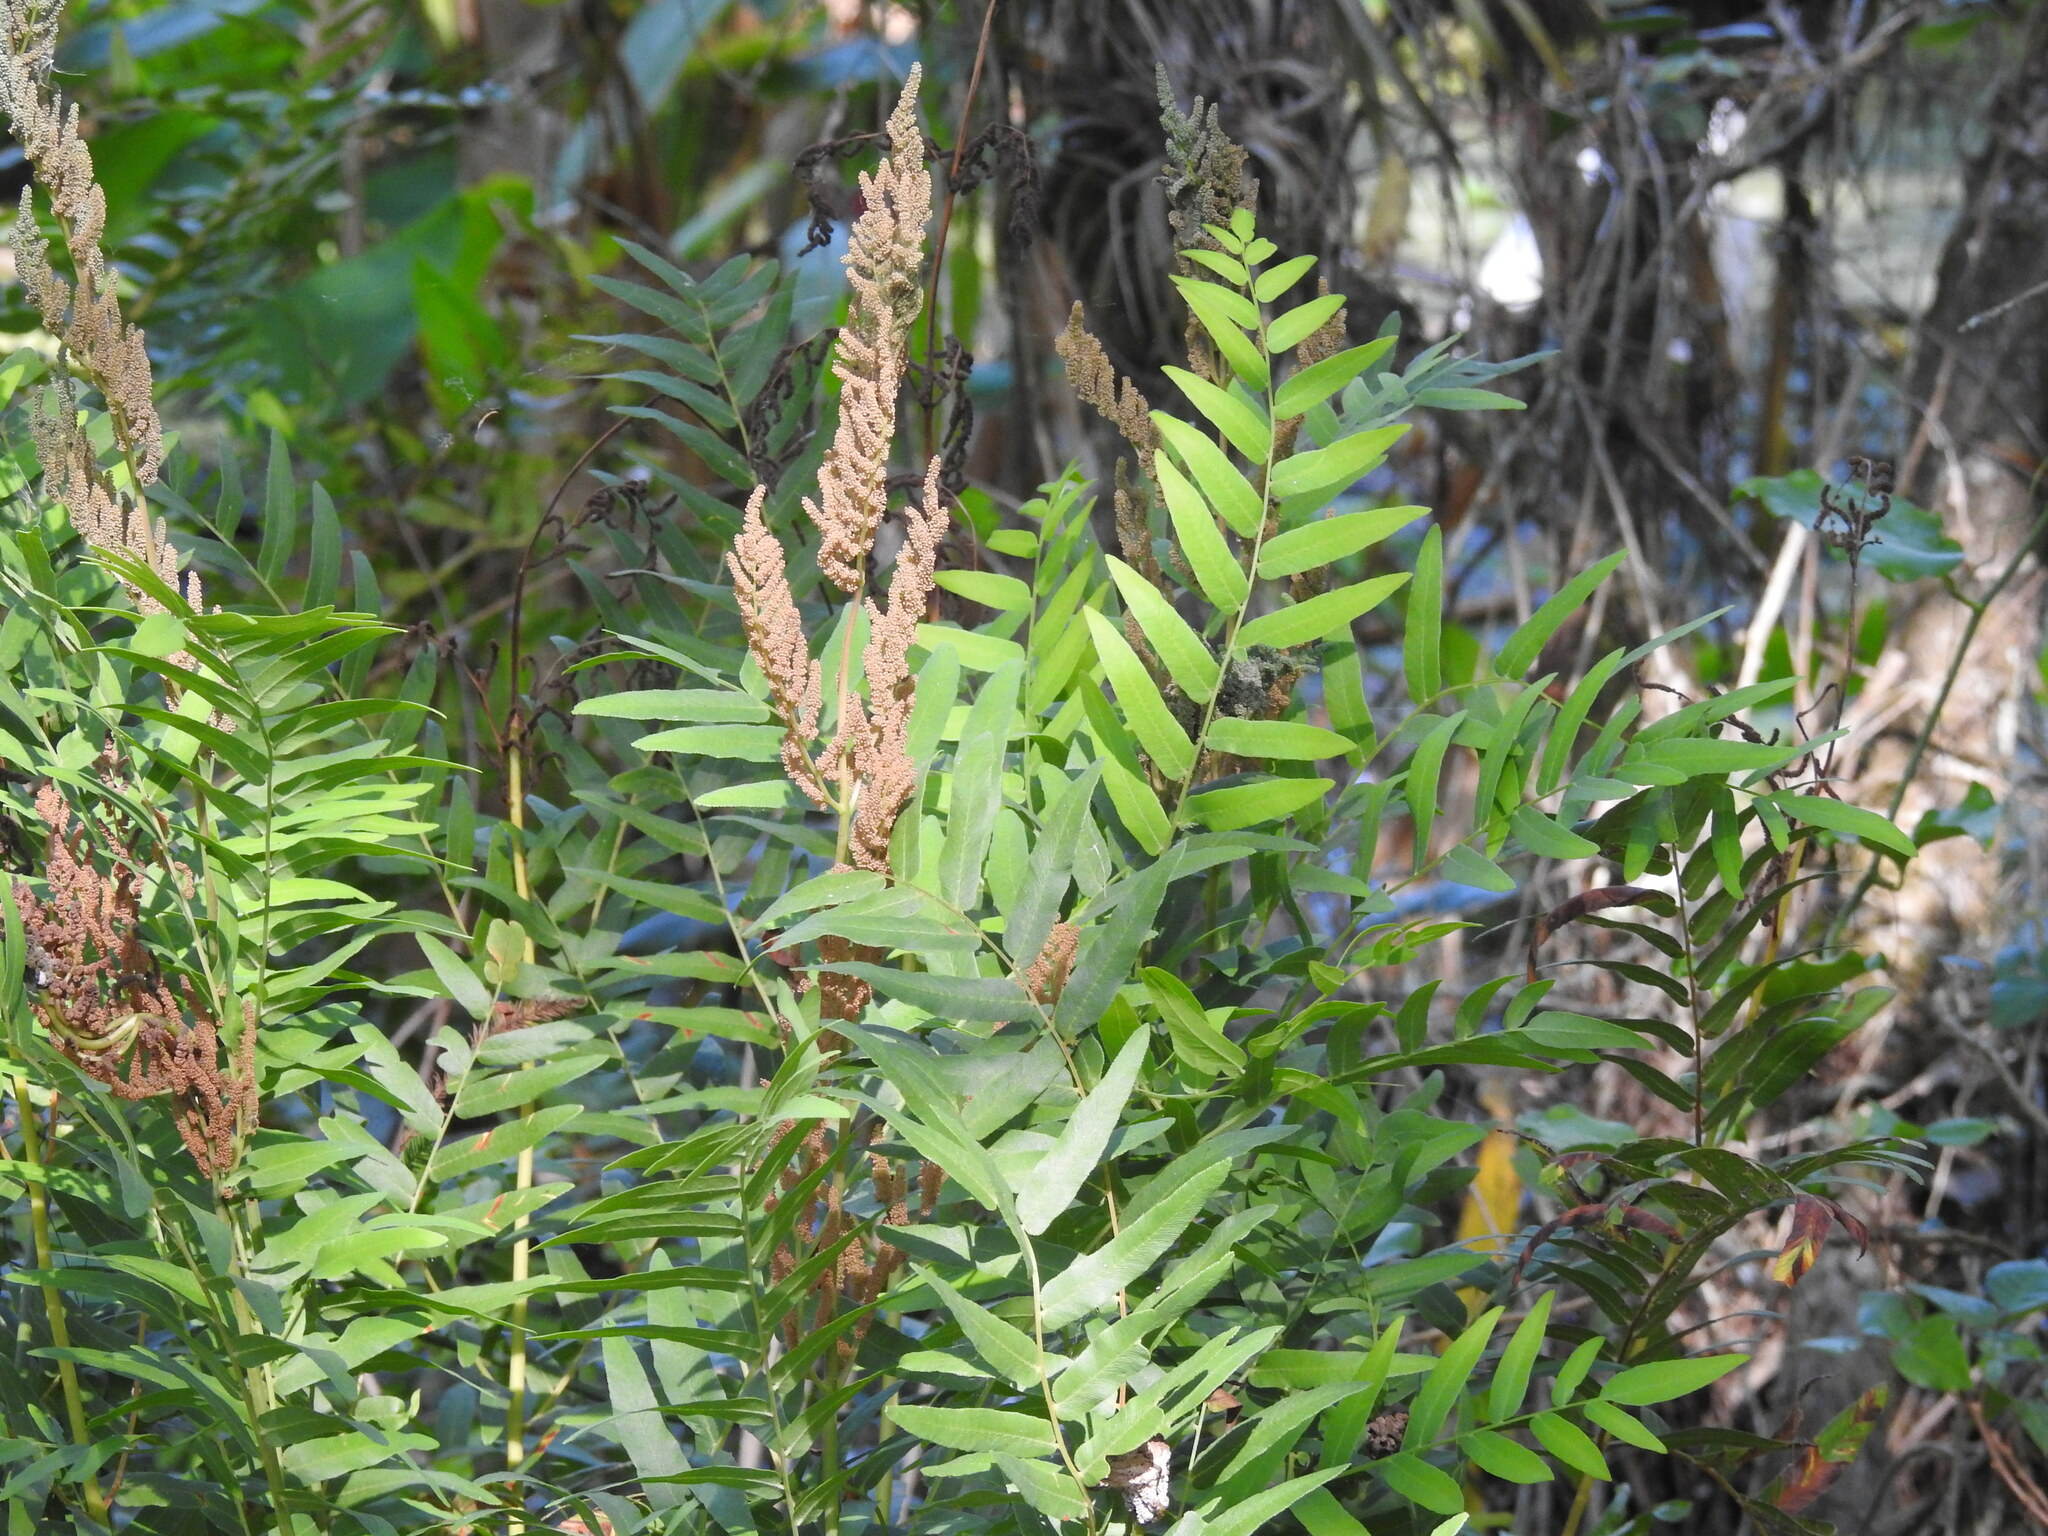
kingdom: Plantae
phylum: Tracheophyta
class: Polypodiopsida
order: Osmundales
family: Osmundaceae
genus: Osmunda
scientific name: Osmunda spectabilis
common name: American royal fern
